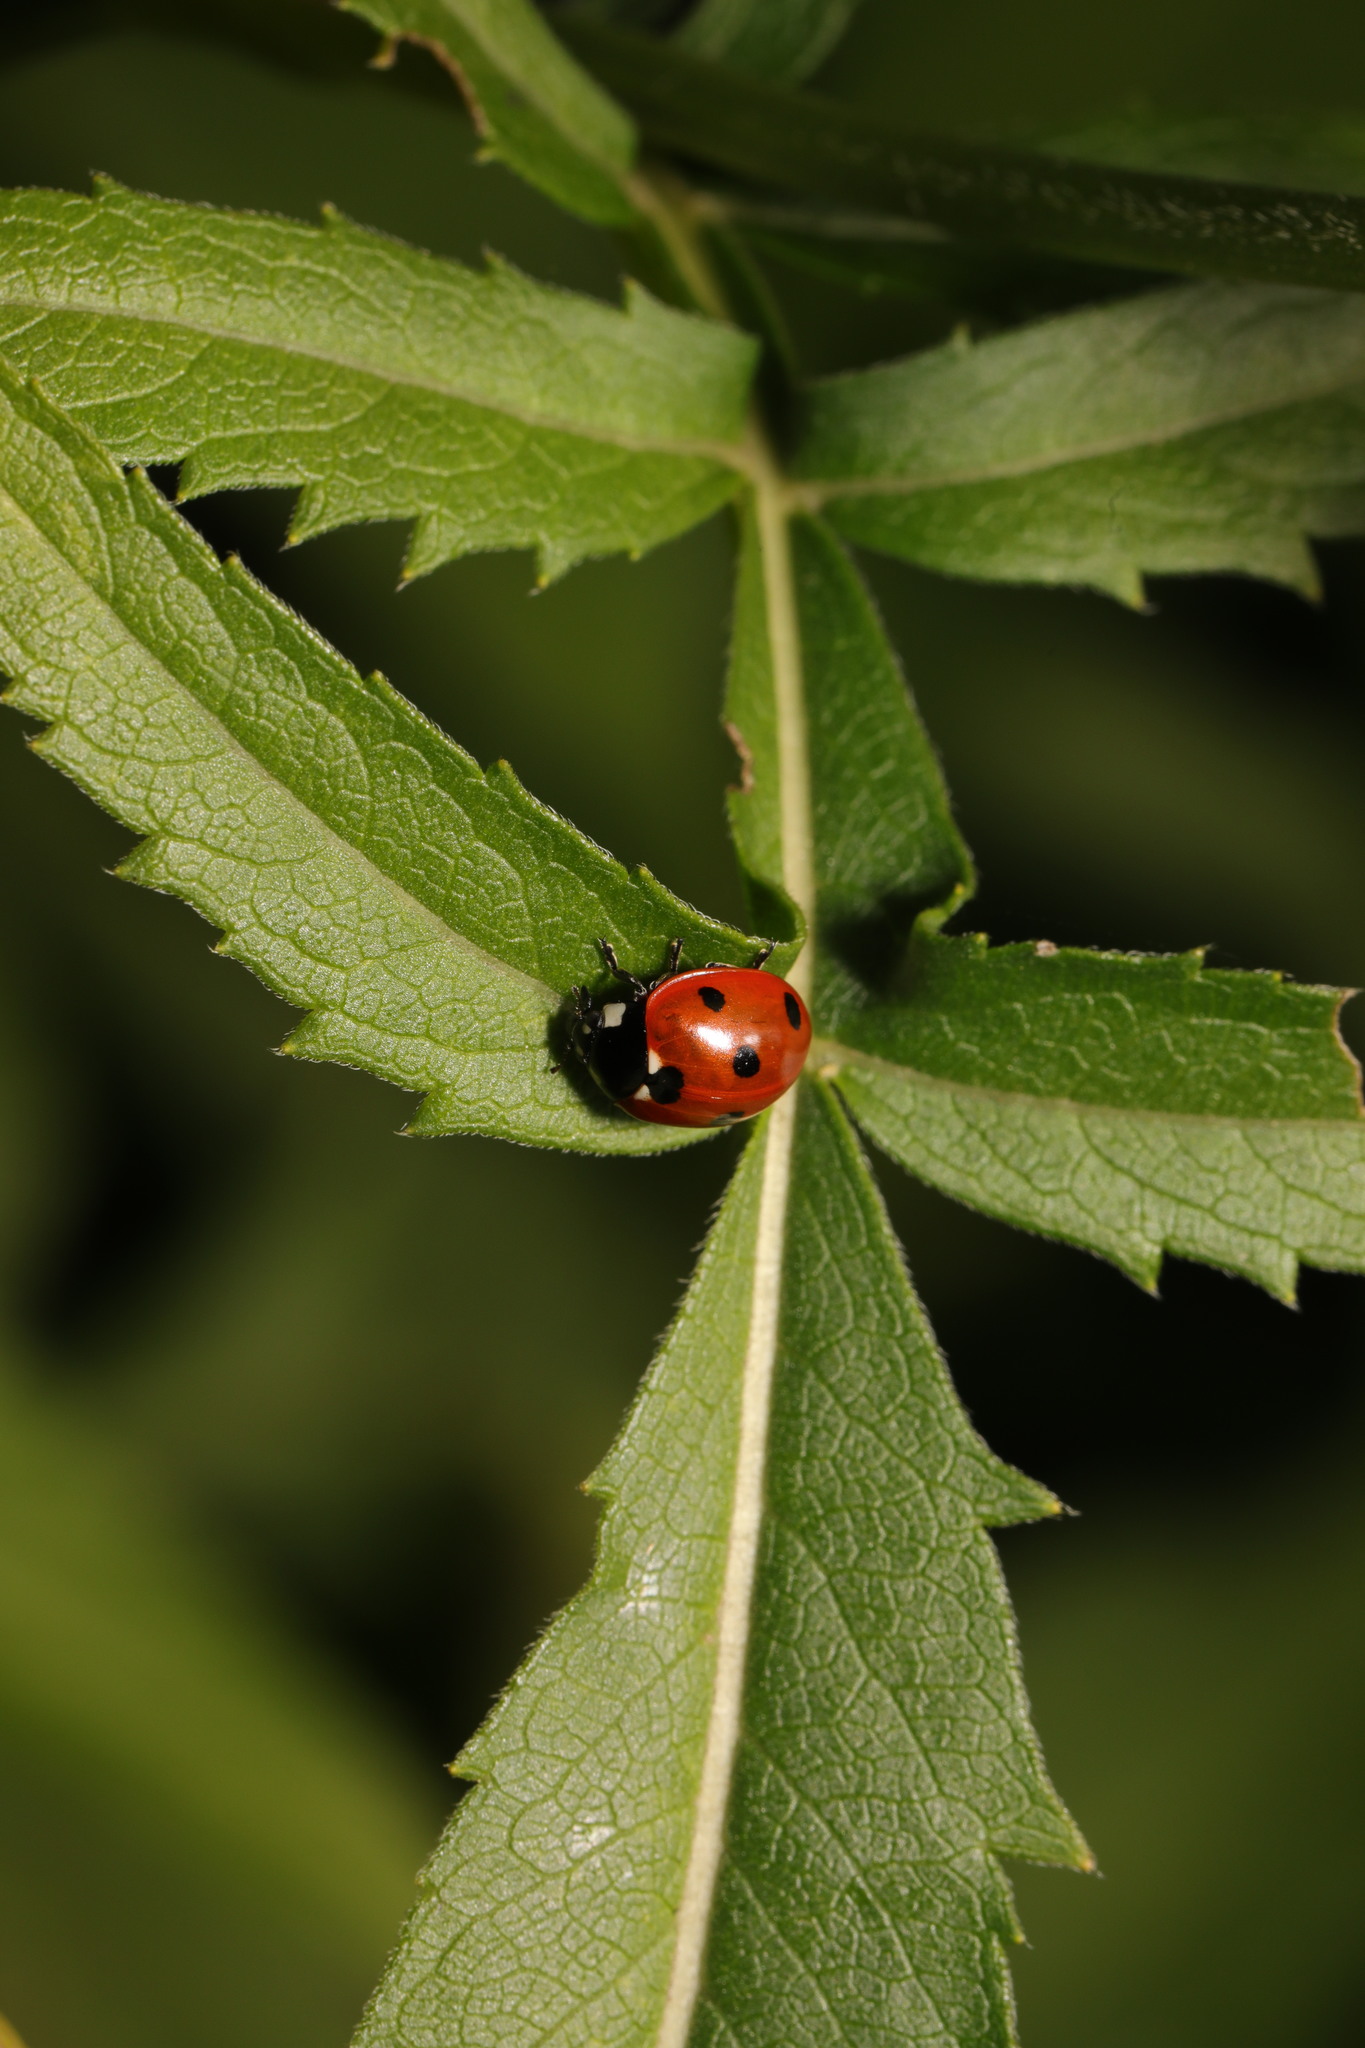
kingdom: Animalia
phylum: Arthropoda
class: Insecta
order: Coleoptera
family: Coccinellidae
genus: Coccinella
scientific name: Coccinella septempunctata
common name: Sevenspotted lady beetle
